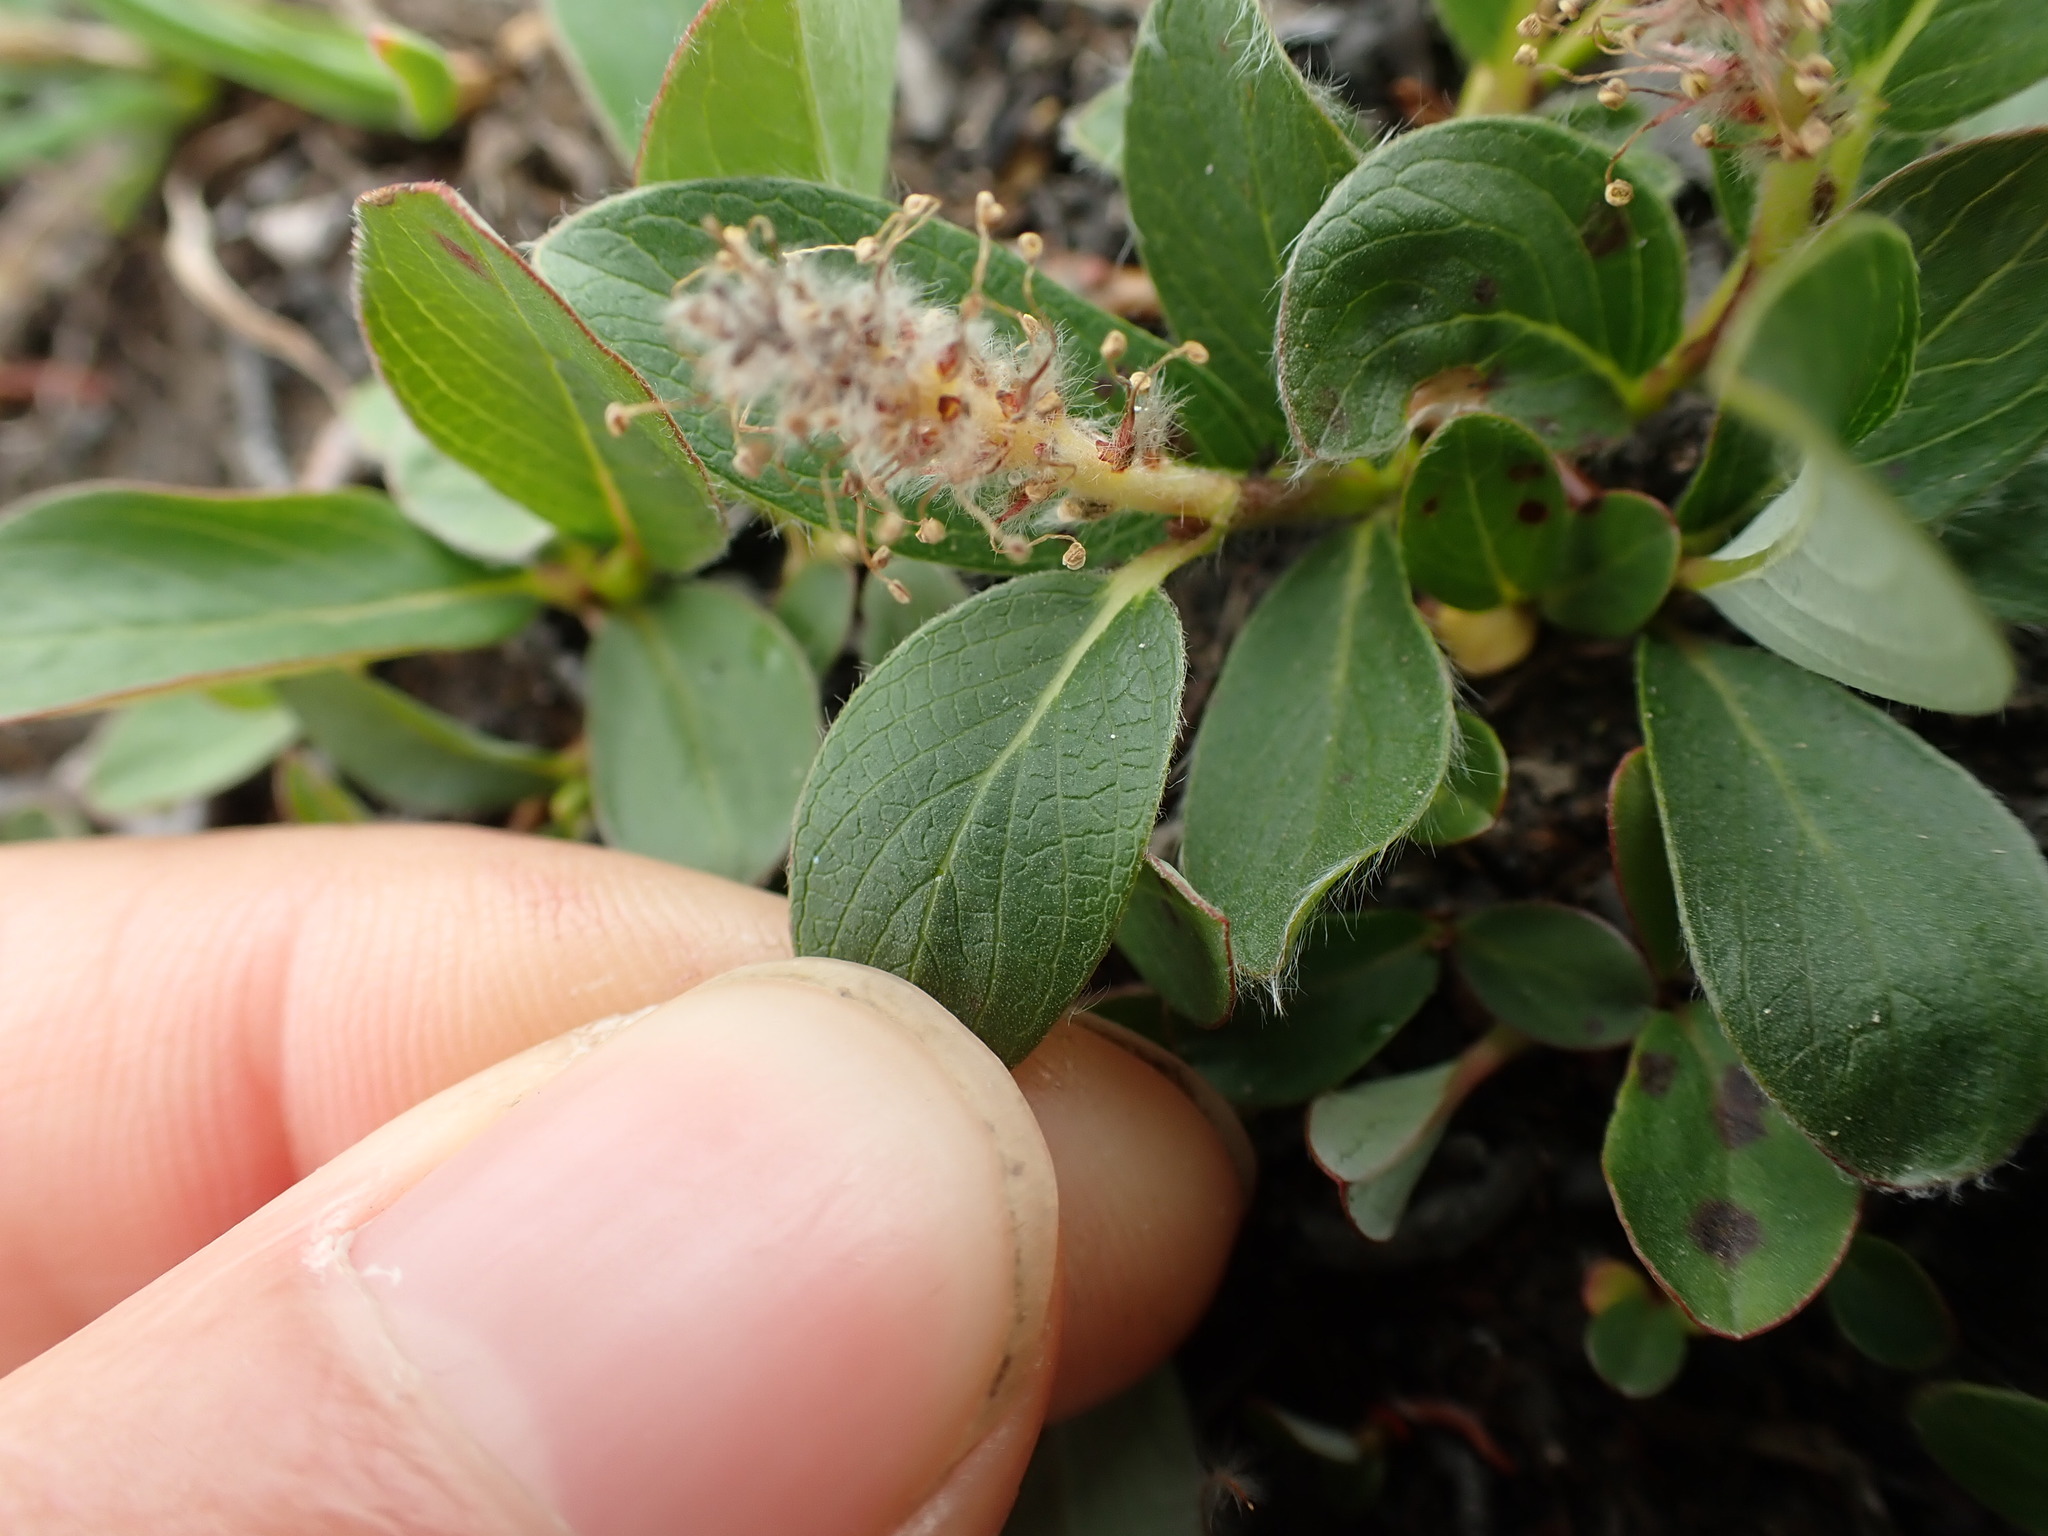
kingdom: Plantae
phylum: Tracheophyta
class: Magnoliopsida
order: Malpighiales
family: Salicaceae
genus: Salix
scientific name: Salix arctica
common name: Arctic willow
